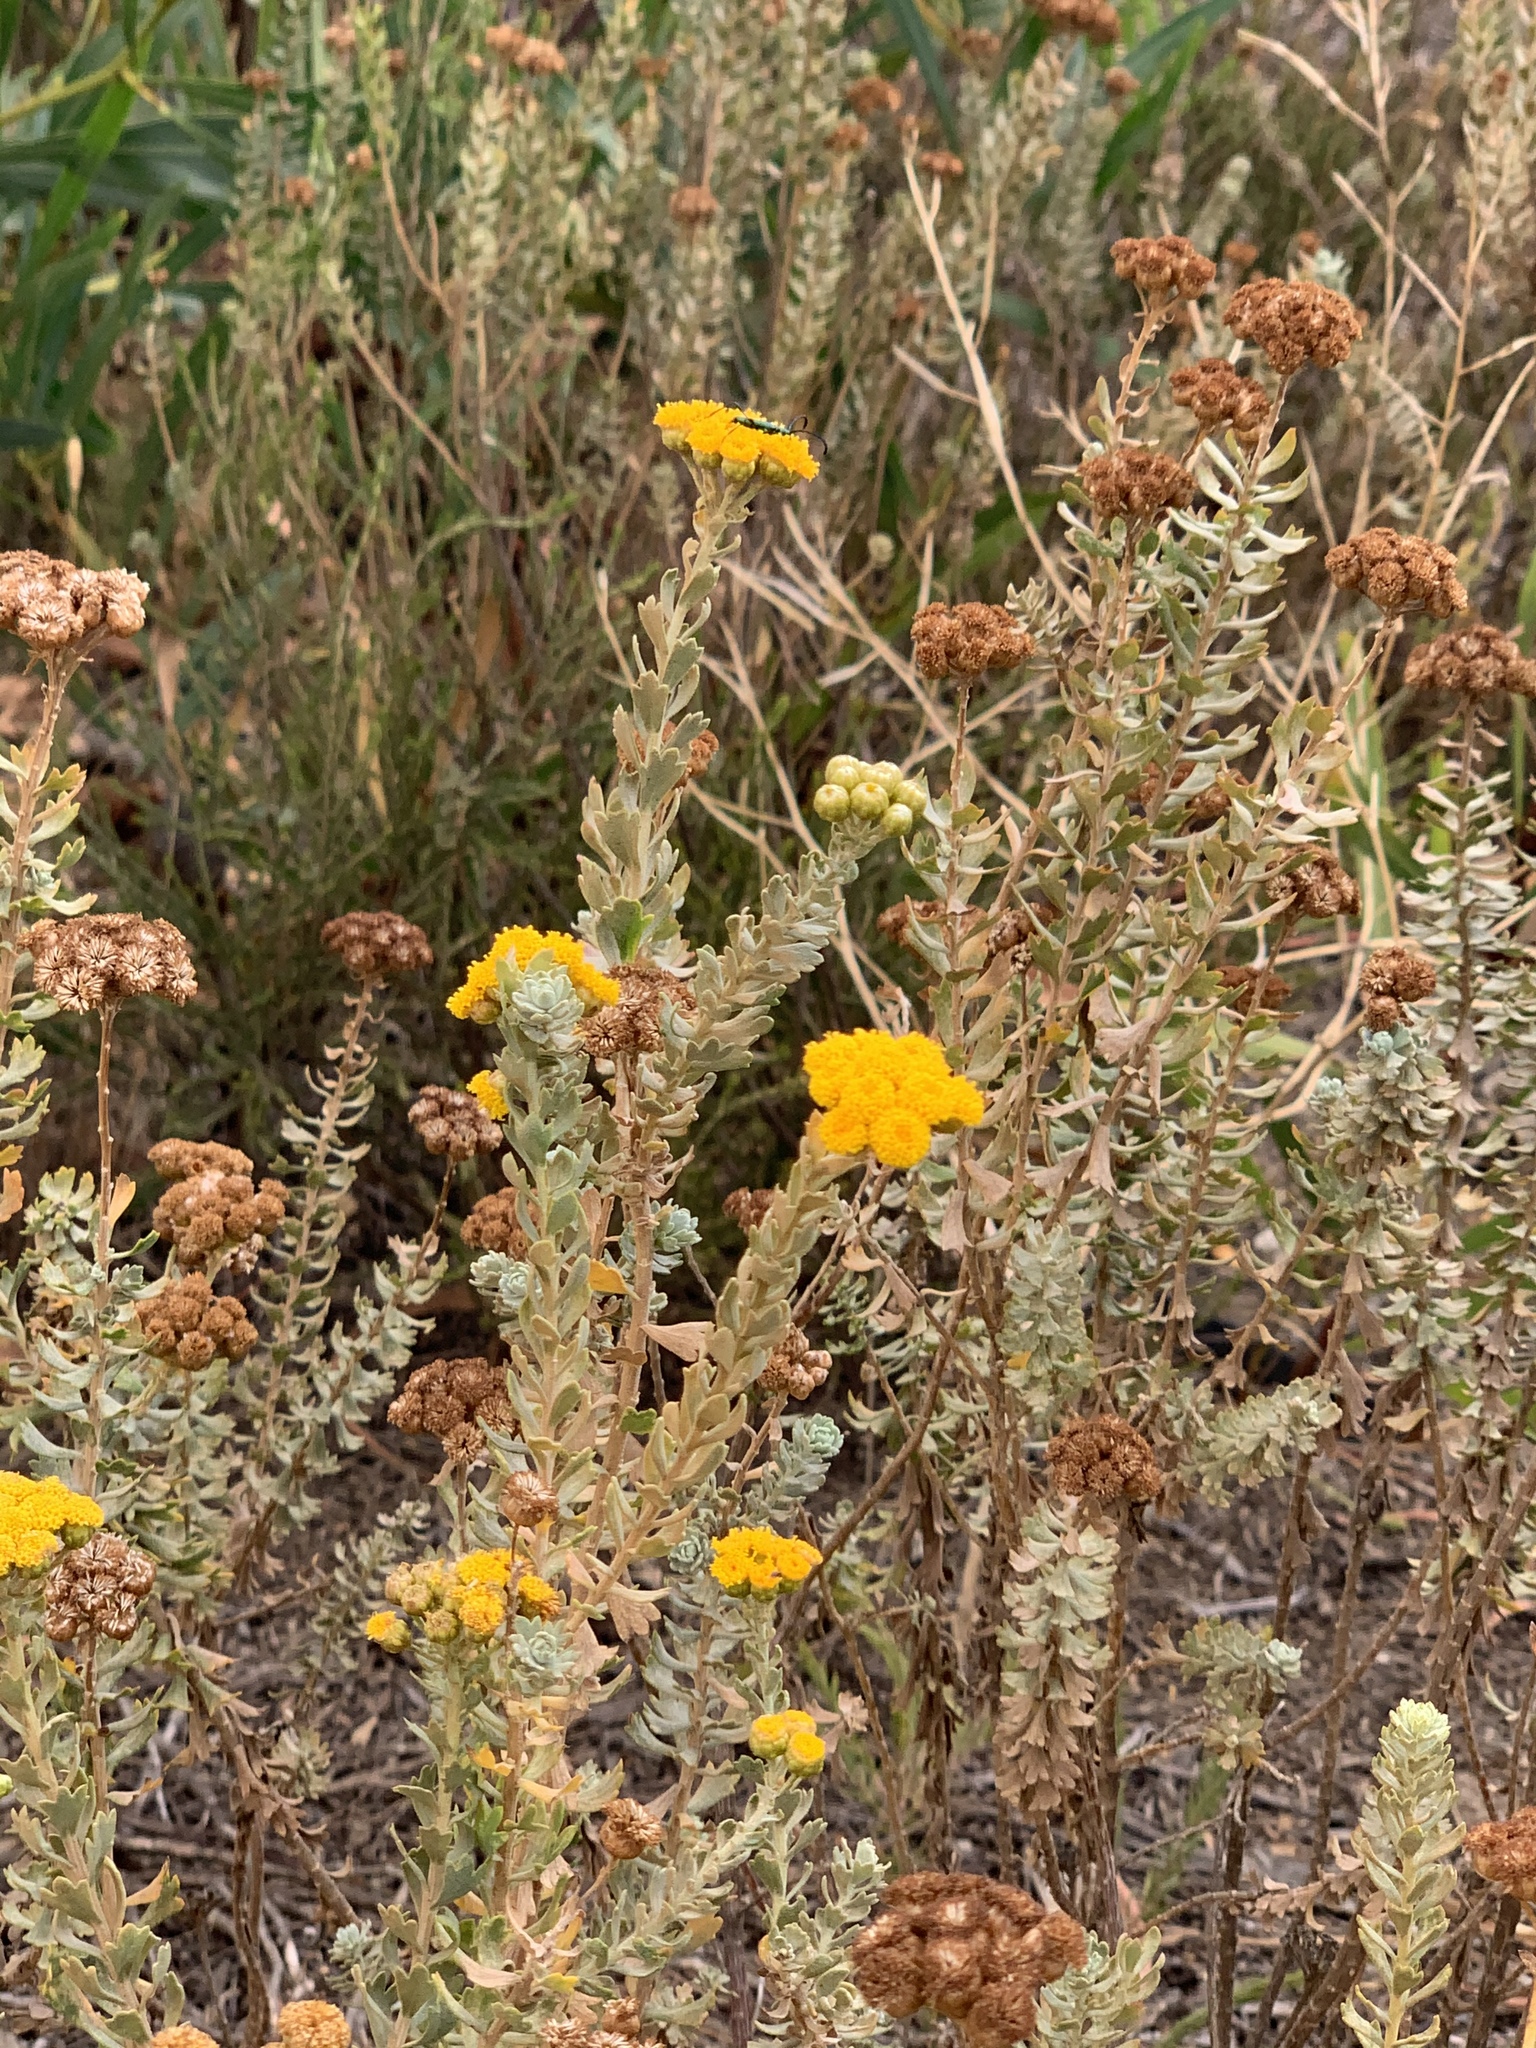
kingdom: Plantae
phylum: Tracheophyta
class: Magnoliopsida
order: Asterales
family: Asteraceae
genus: Athanasia
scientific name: Athanasia trifurcata
